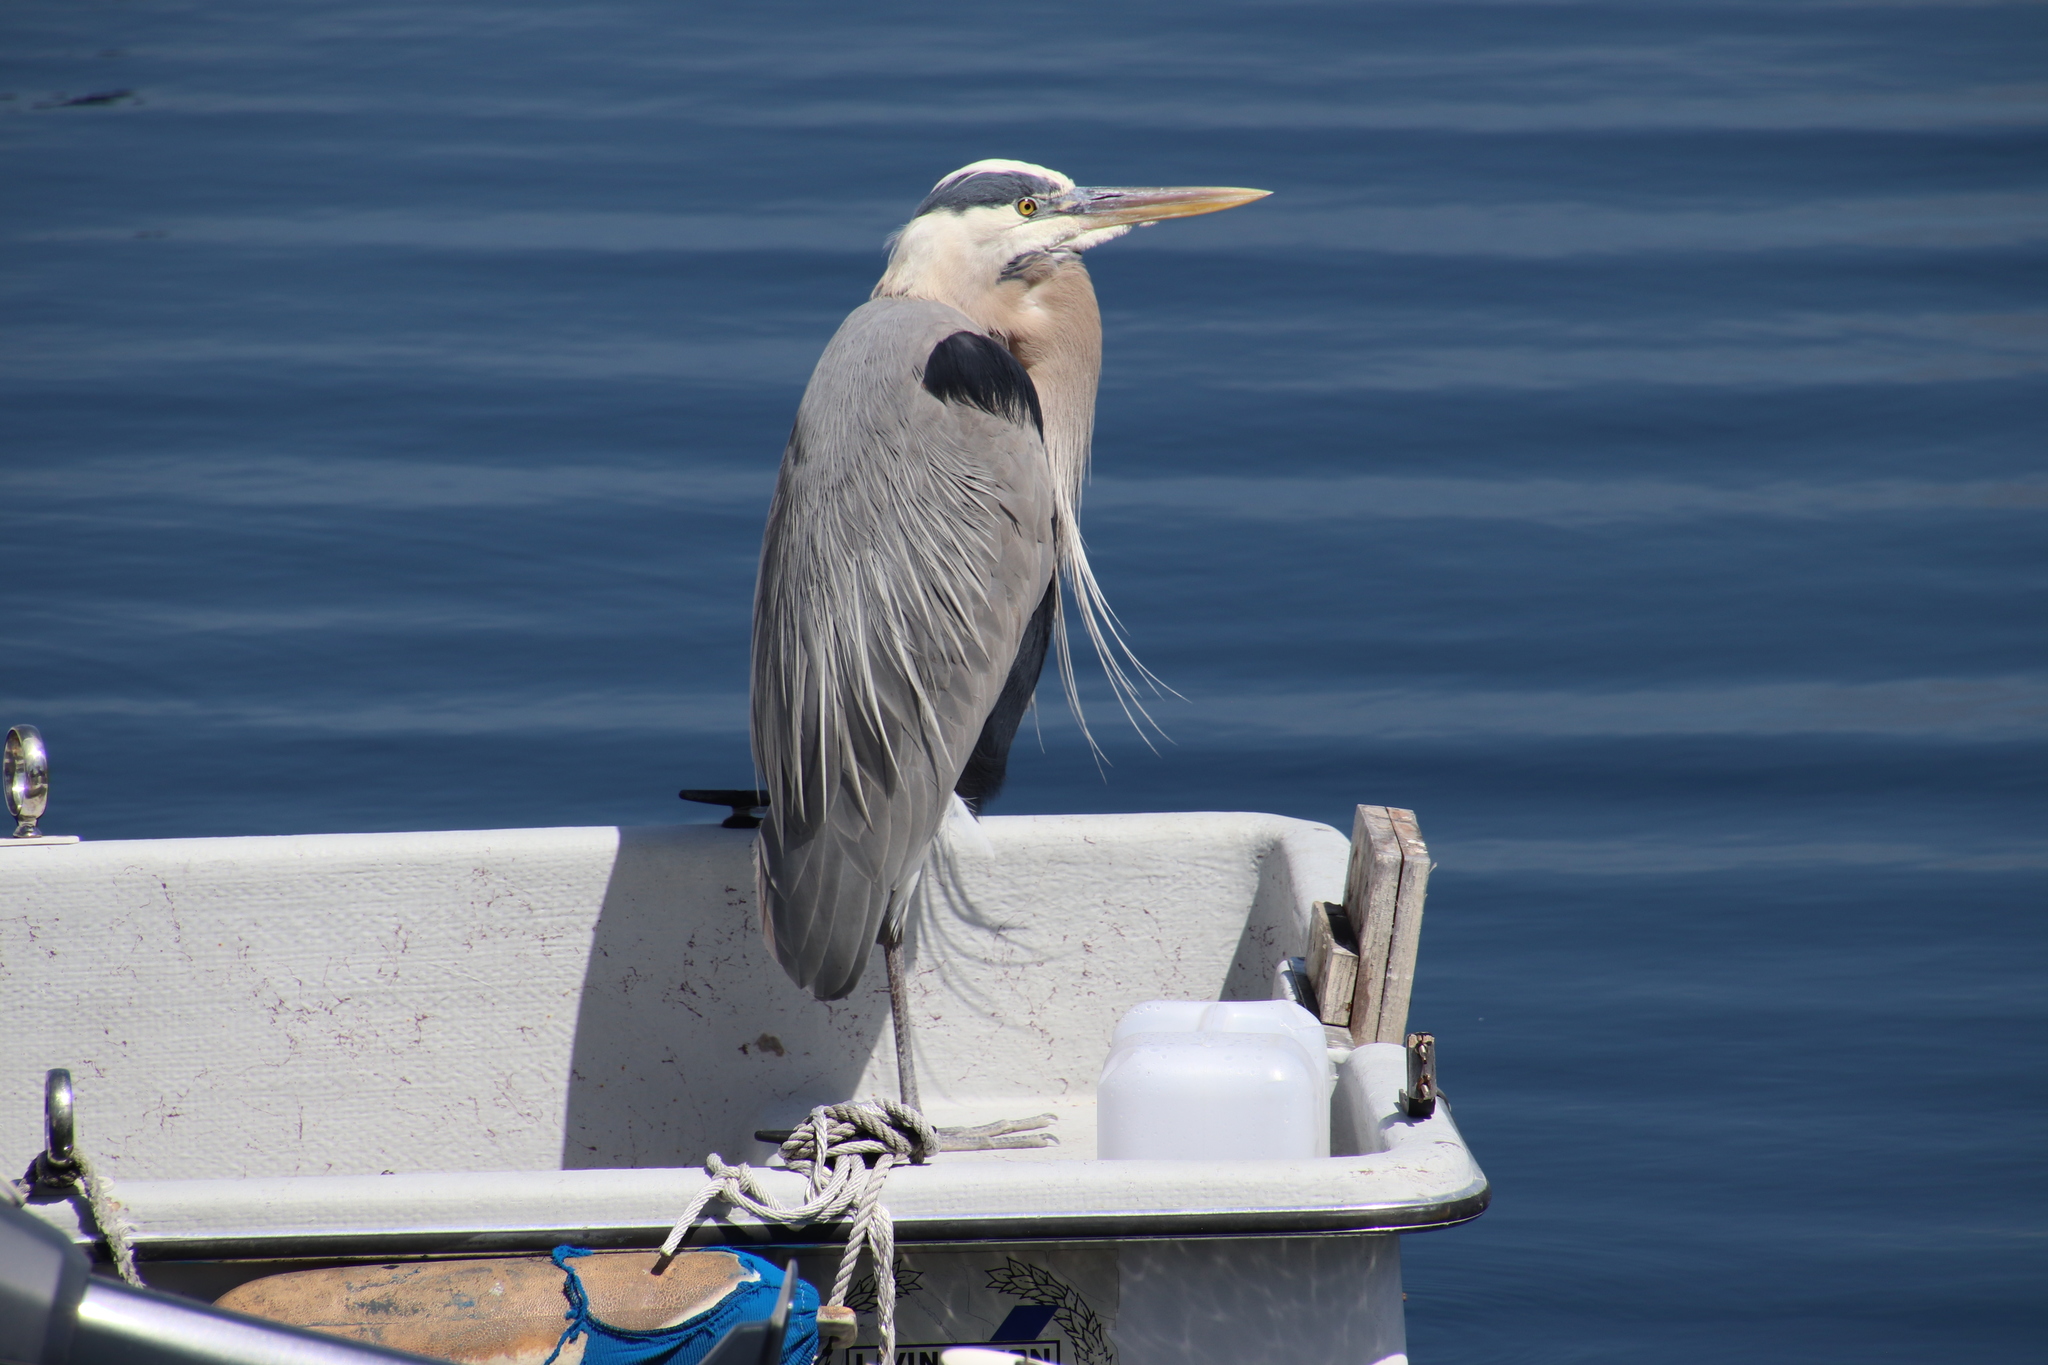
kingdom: Animalia
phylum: Chordata
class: Aves
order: Pelecaniformes
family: Ardeidae
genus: Ardea
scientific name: Ardea herodias
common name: Great blue heron
